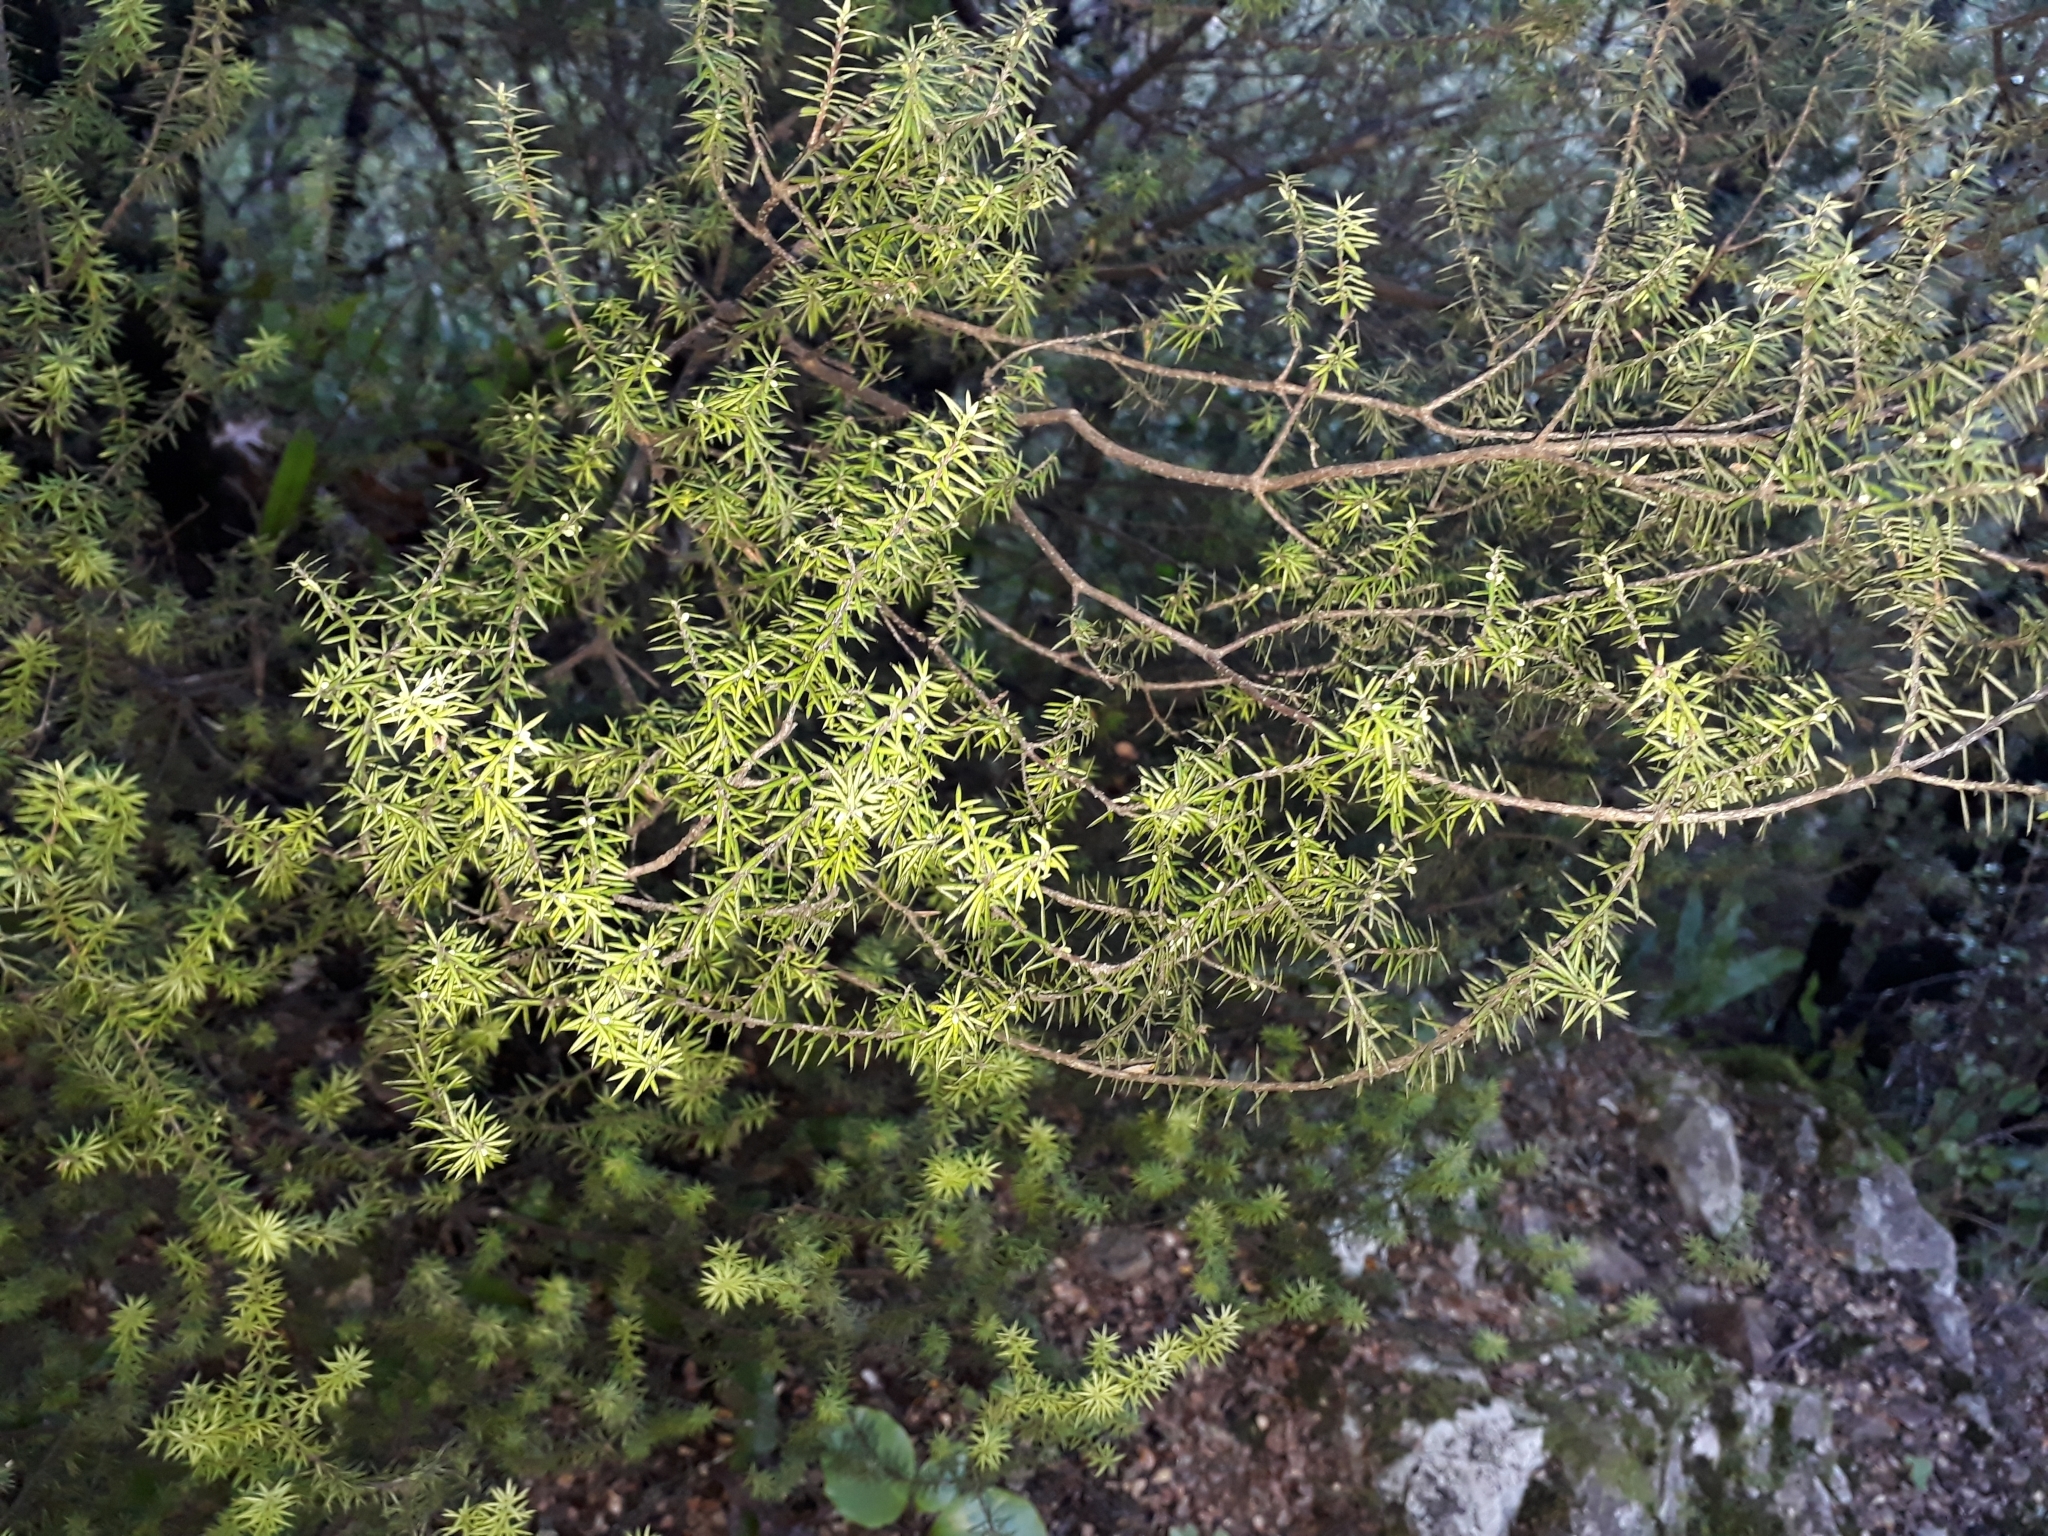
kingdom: Plantae
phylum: Tracheophyta
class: Magnoliopsida
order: Ericales
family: Ericaceae
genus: Leptecophylla
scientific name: Leptecophylla juniperina
